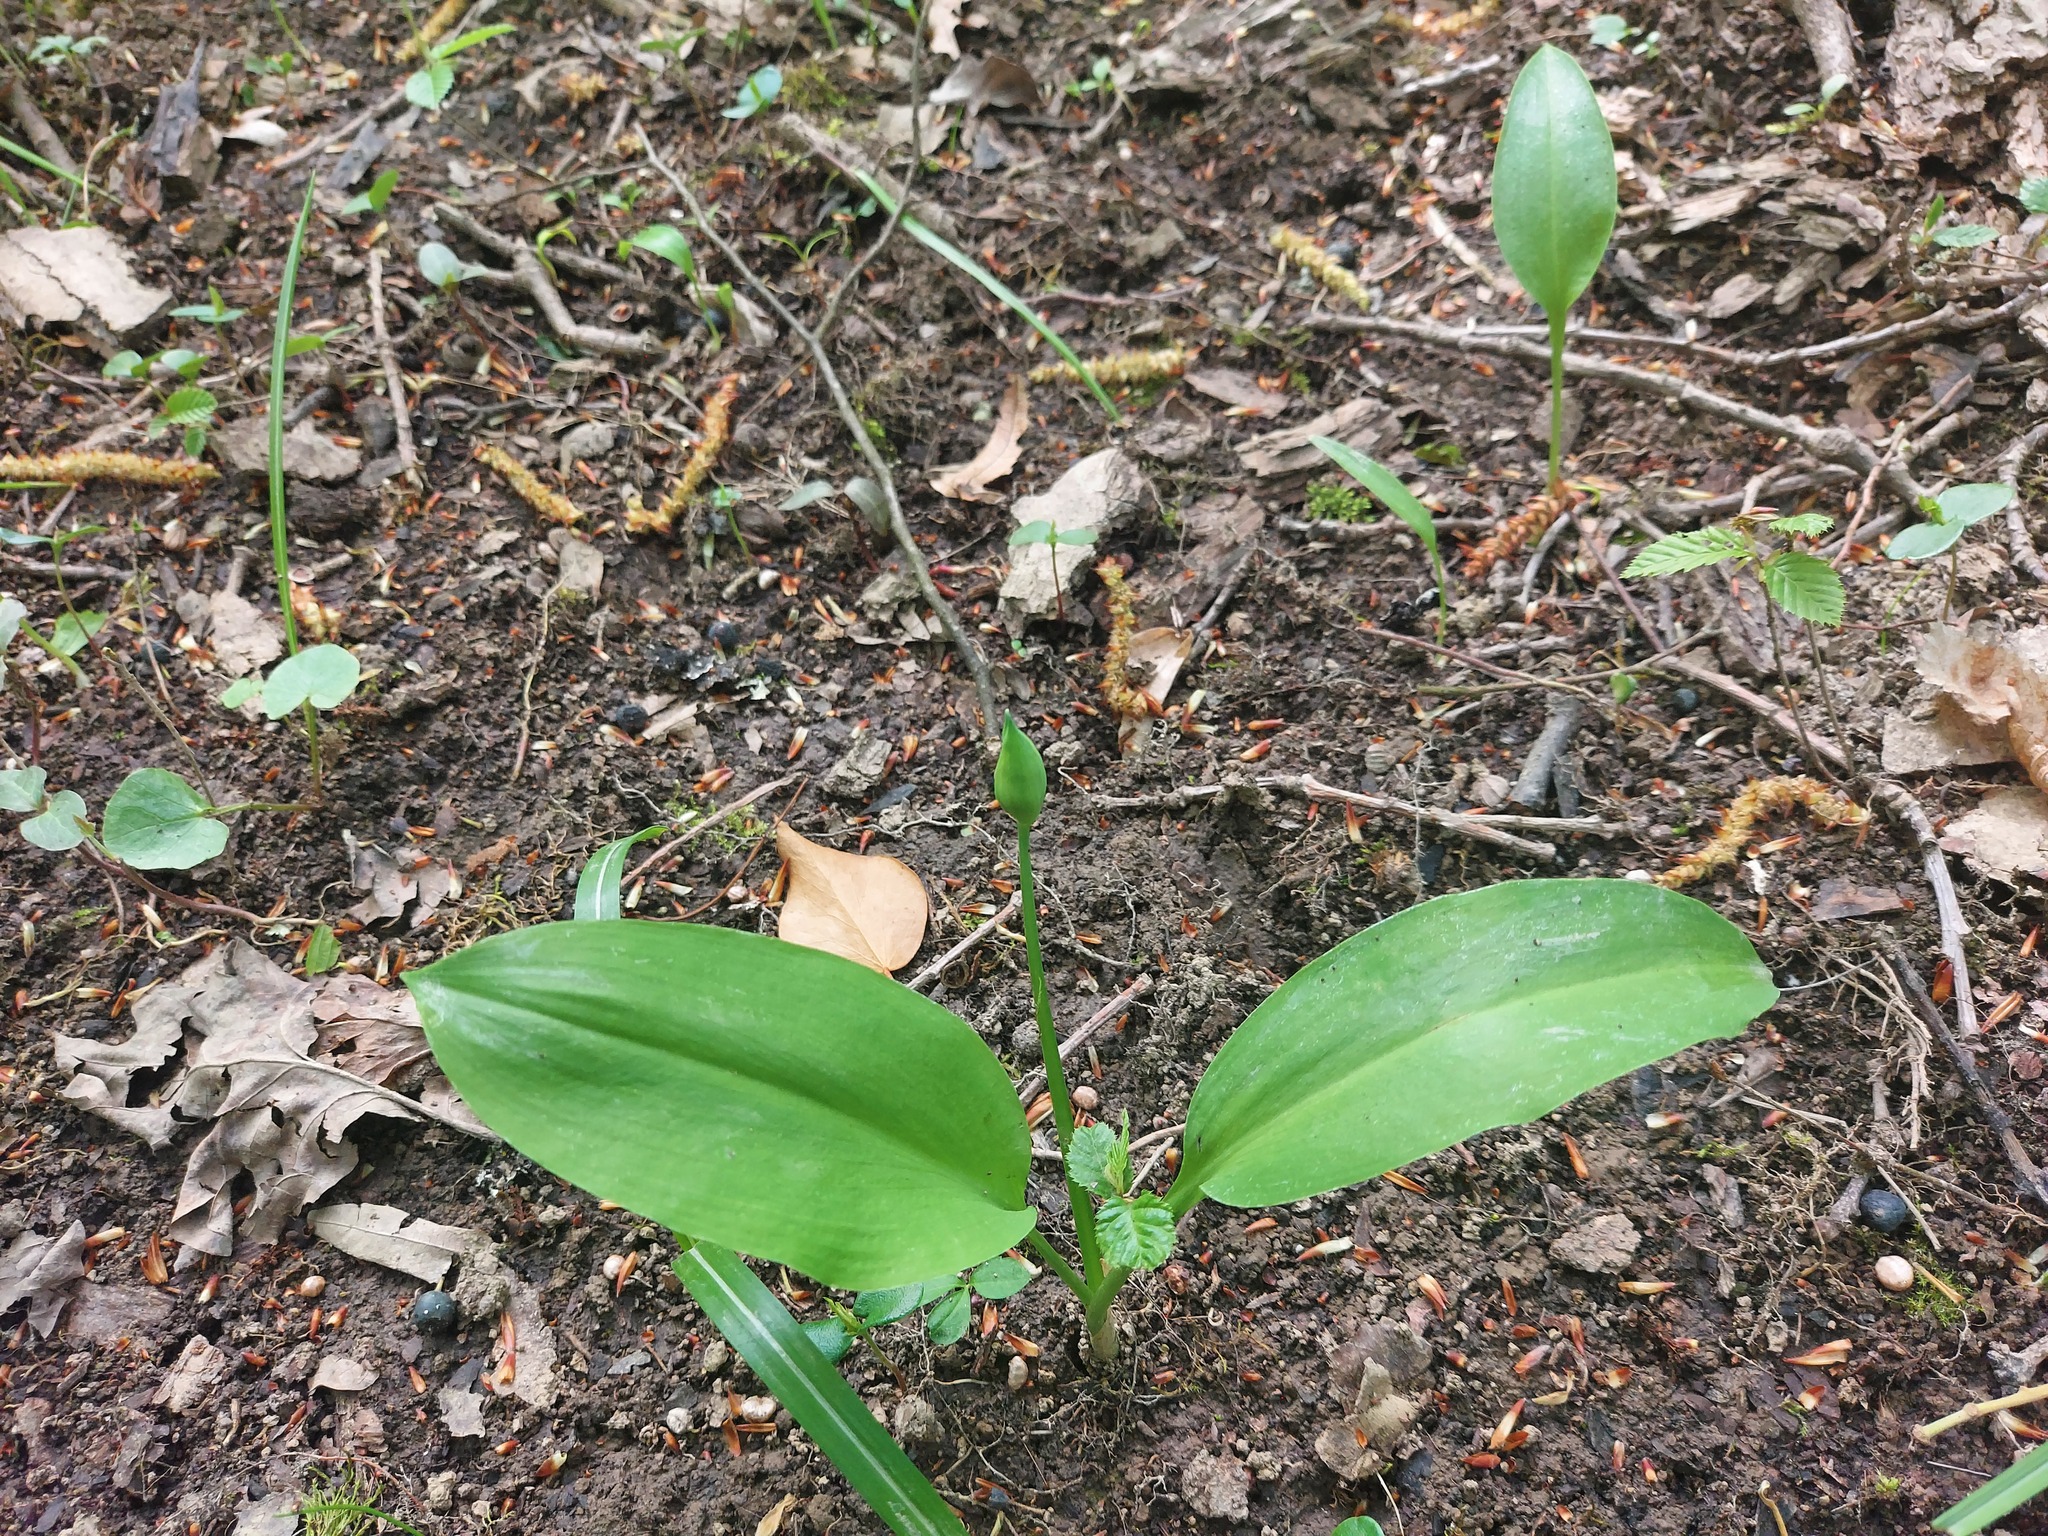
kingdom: Plantae
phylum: Tracheophyta
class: Liliopsida
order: Asparagales
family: Amaryllidaceae
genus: Allium
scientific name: Allium ursinum
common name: Ramsons
